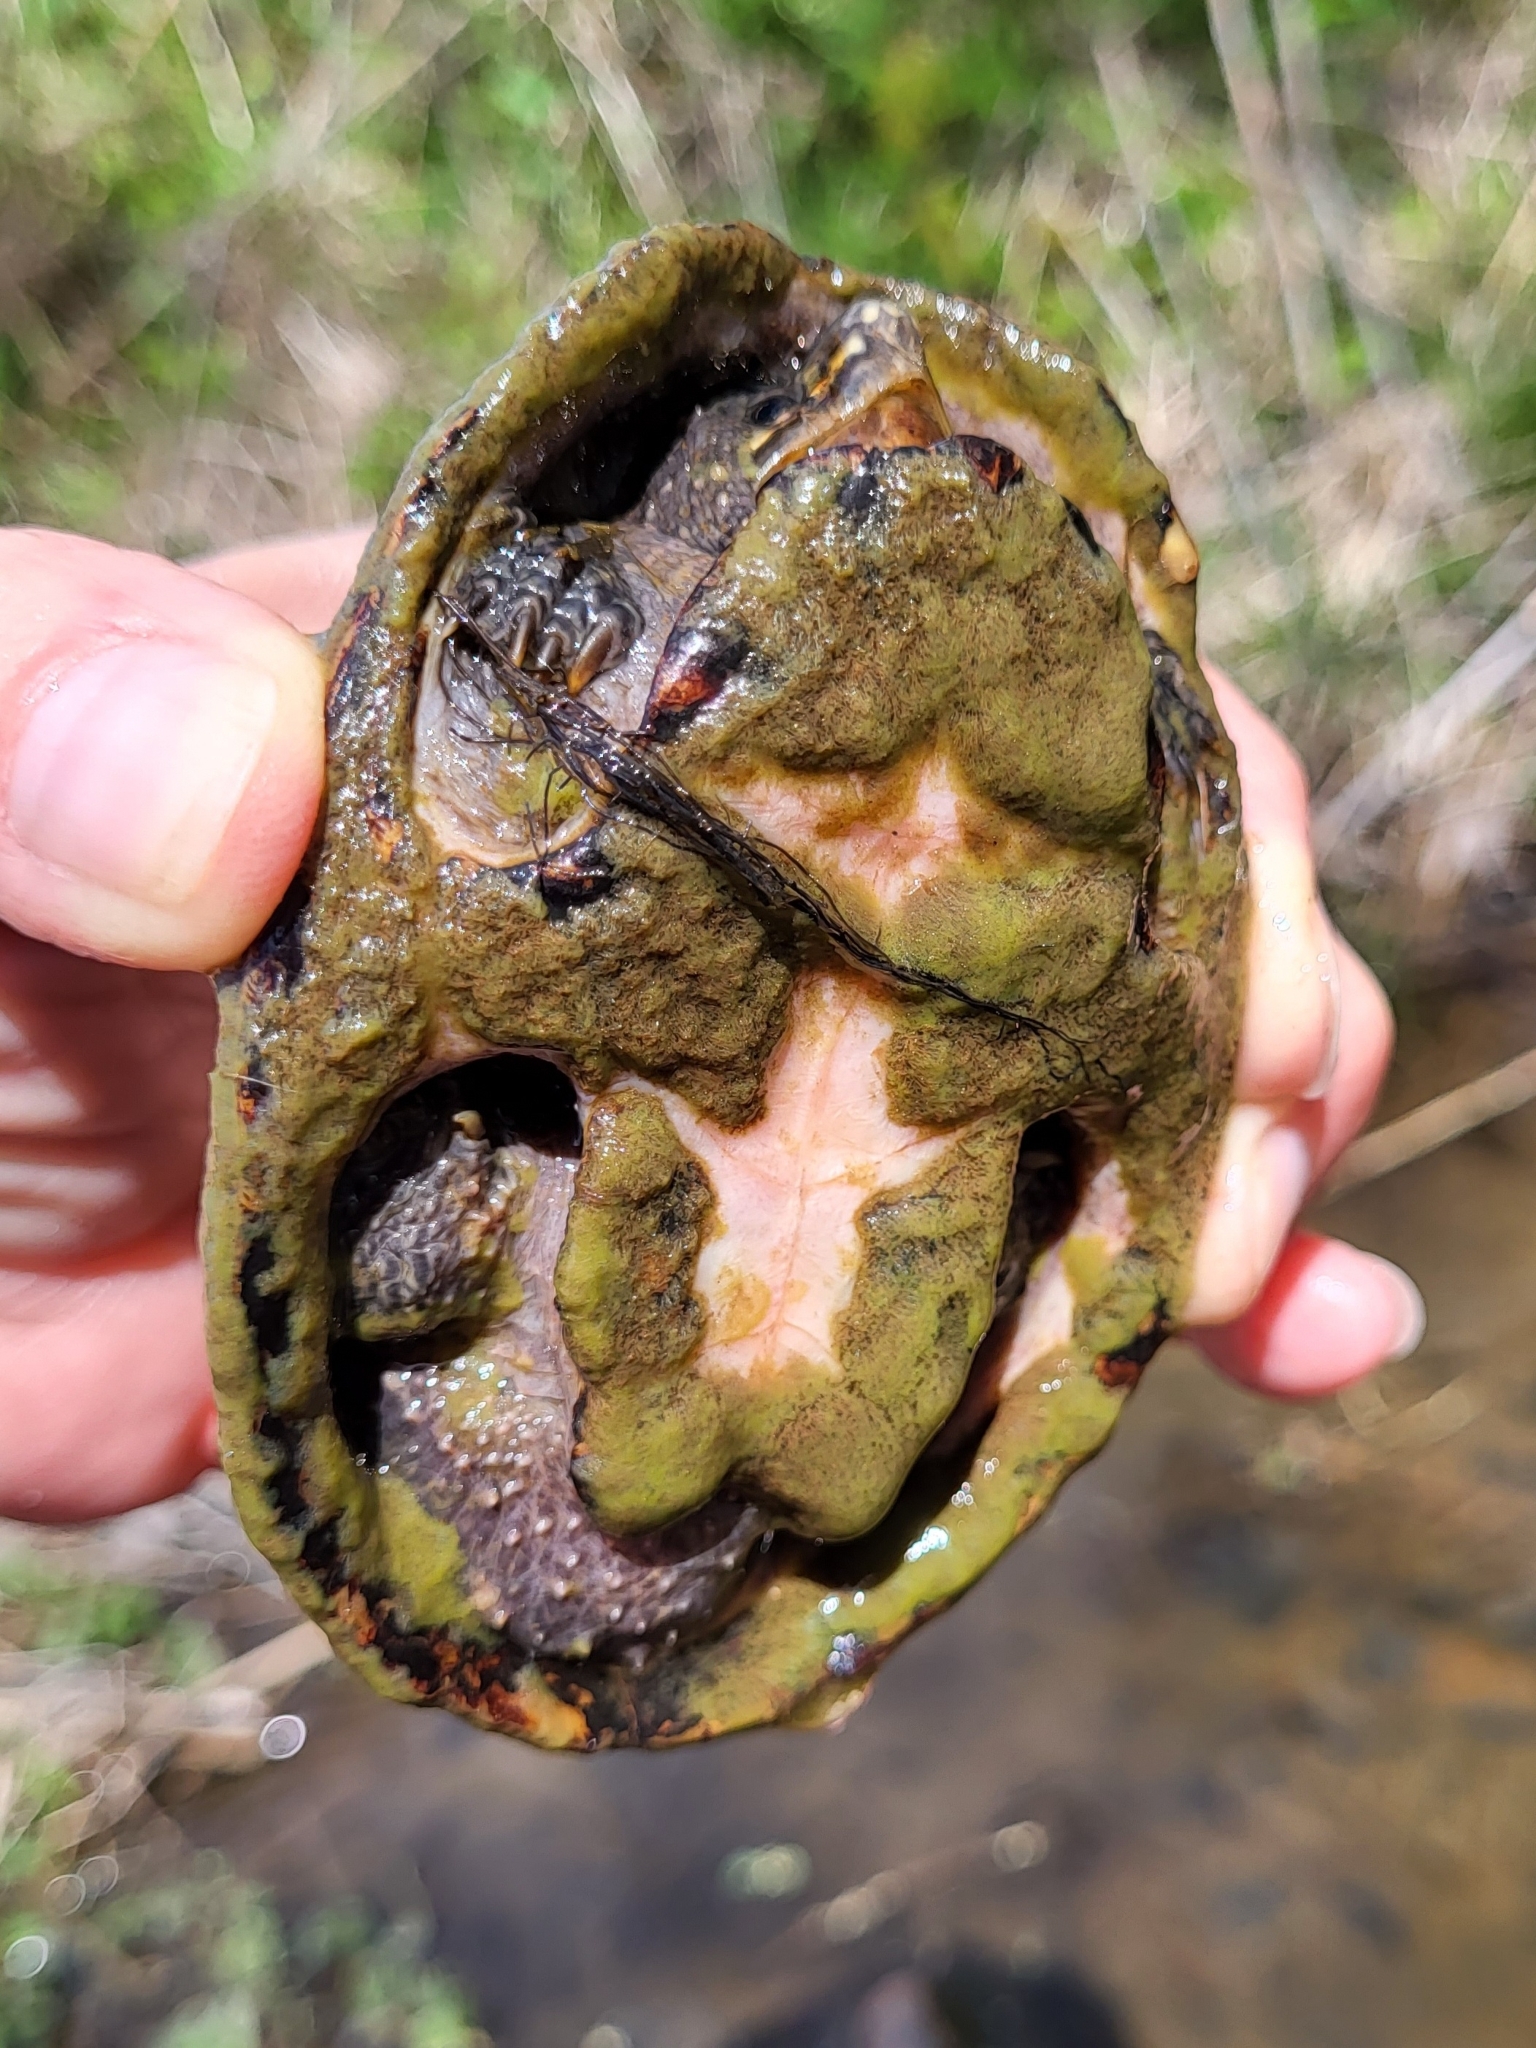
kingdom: Animalia
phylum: Chordata
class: Testudines
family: Kinosternidae
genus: Sternotherus
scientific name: Sternotherus odoratus
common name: Common musk turtle
